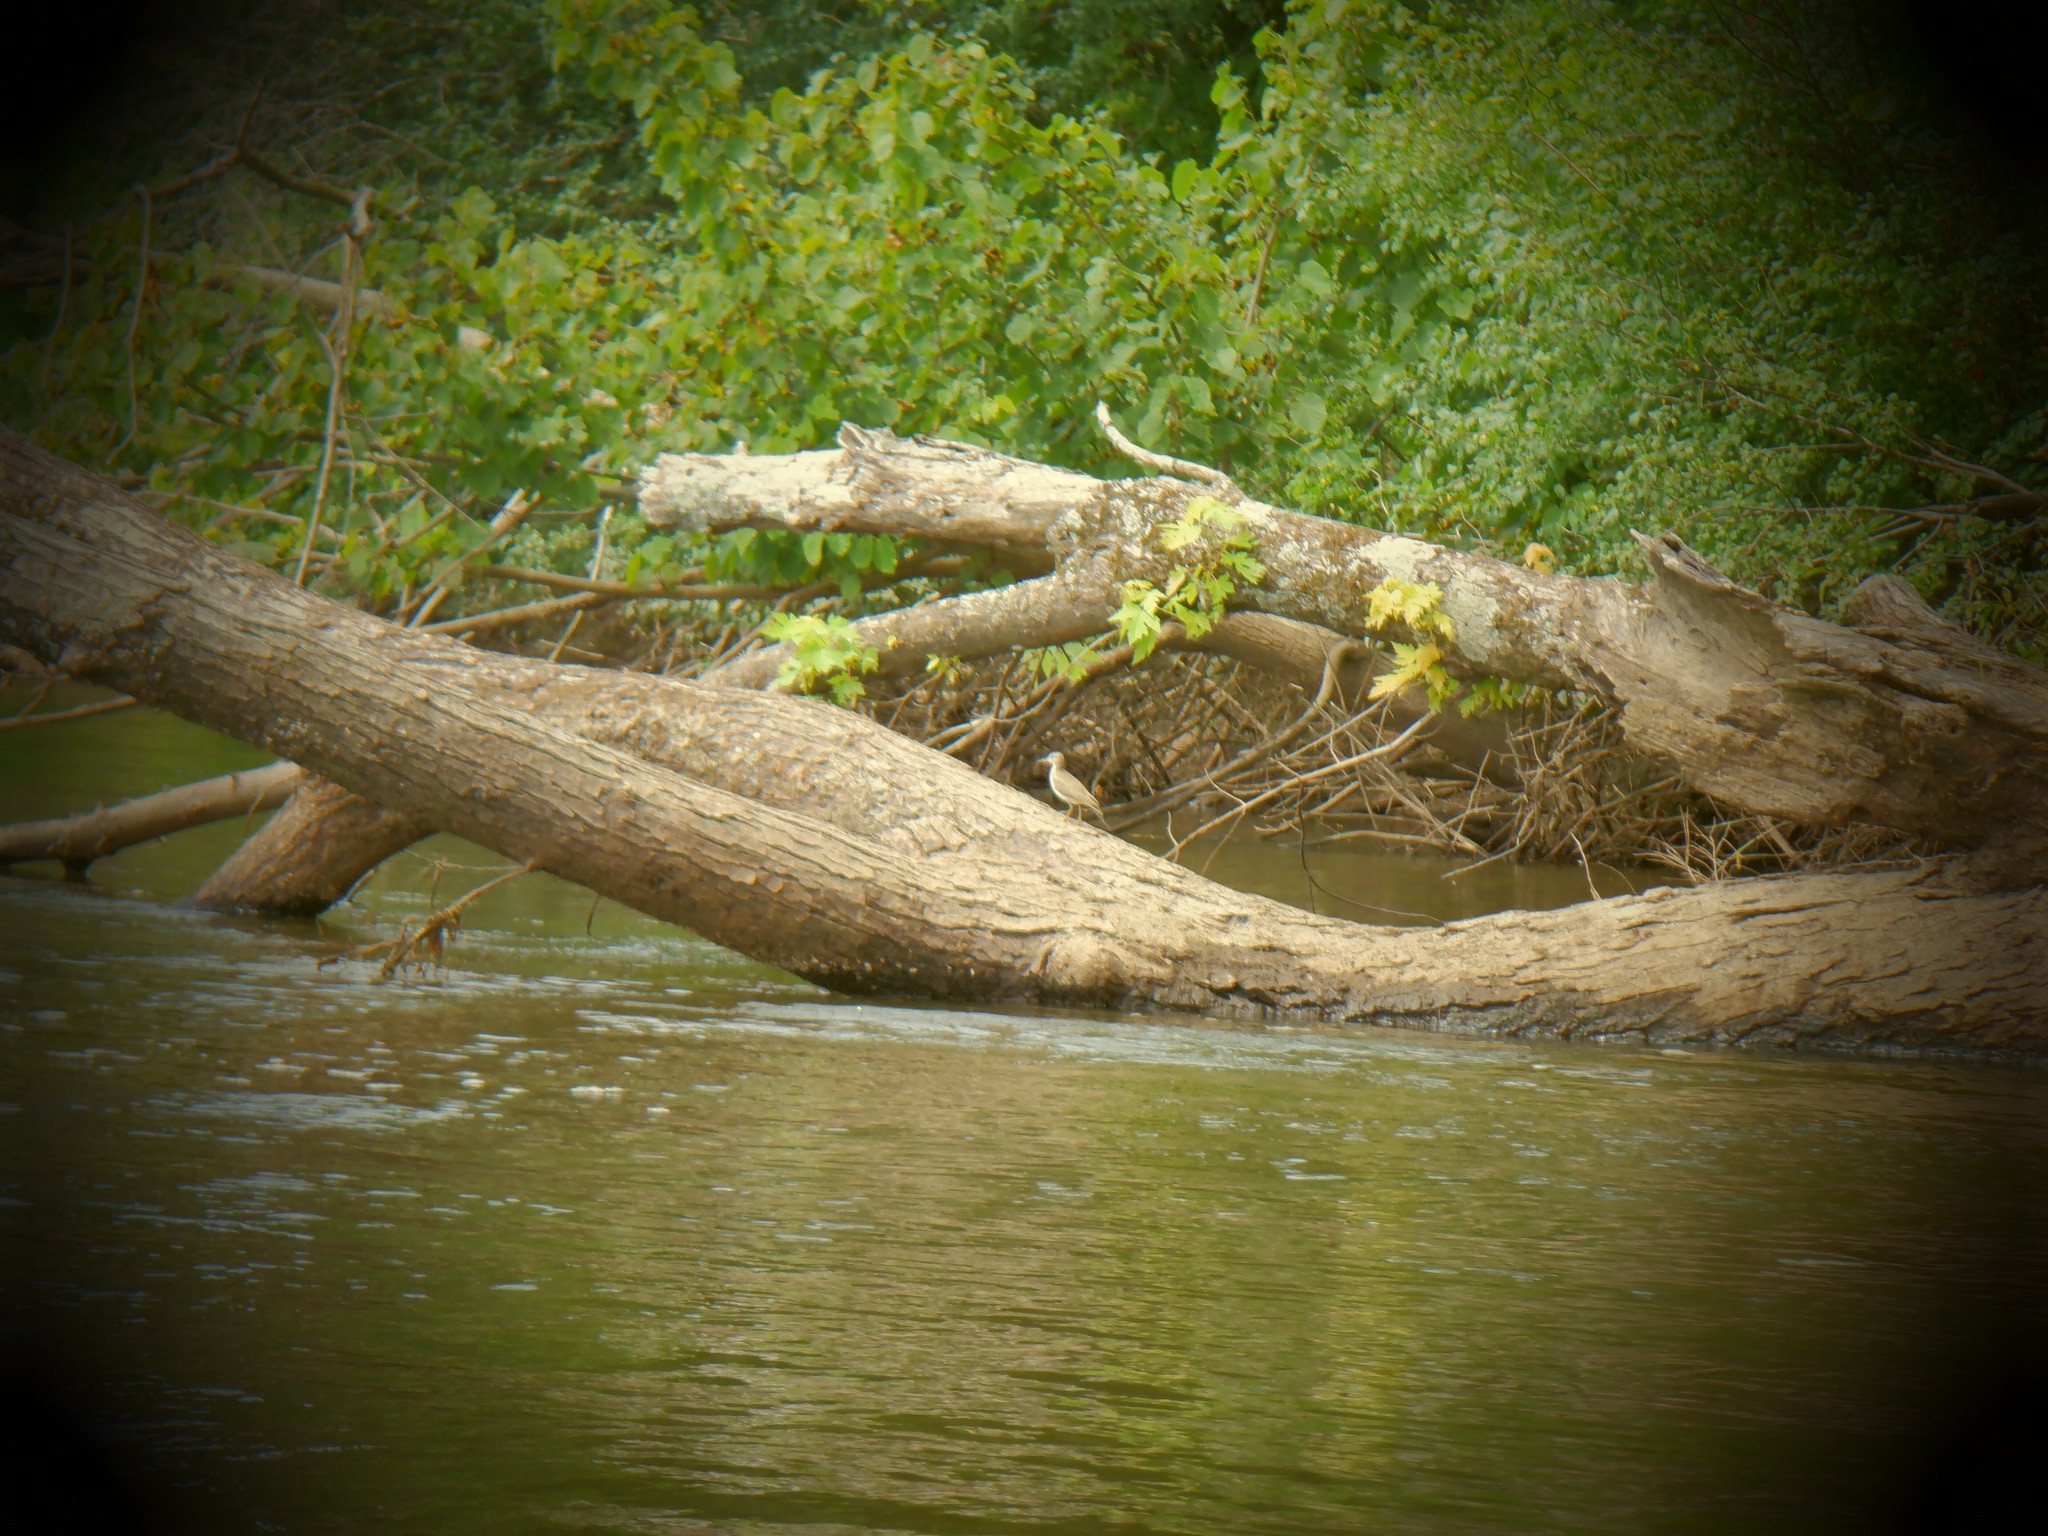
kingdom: Animalia
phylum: Chordata
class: Aves
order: Charadriiformes
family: Scolopacidae
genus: Actitis
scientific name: Actitis macularius
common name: Spotted sandpiper
